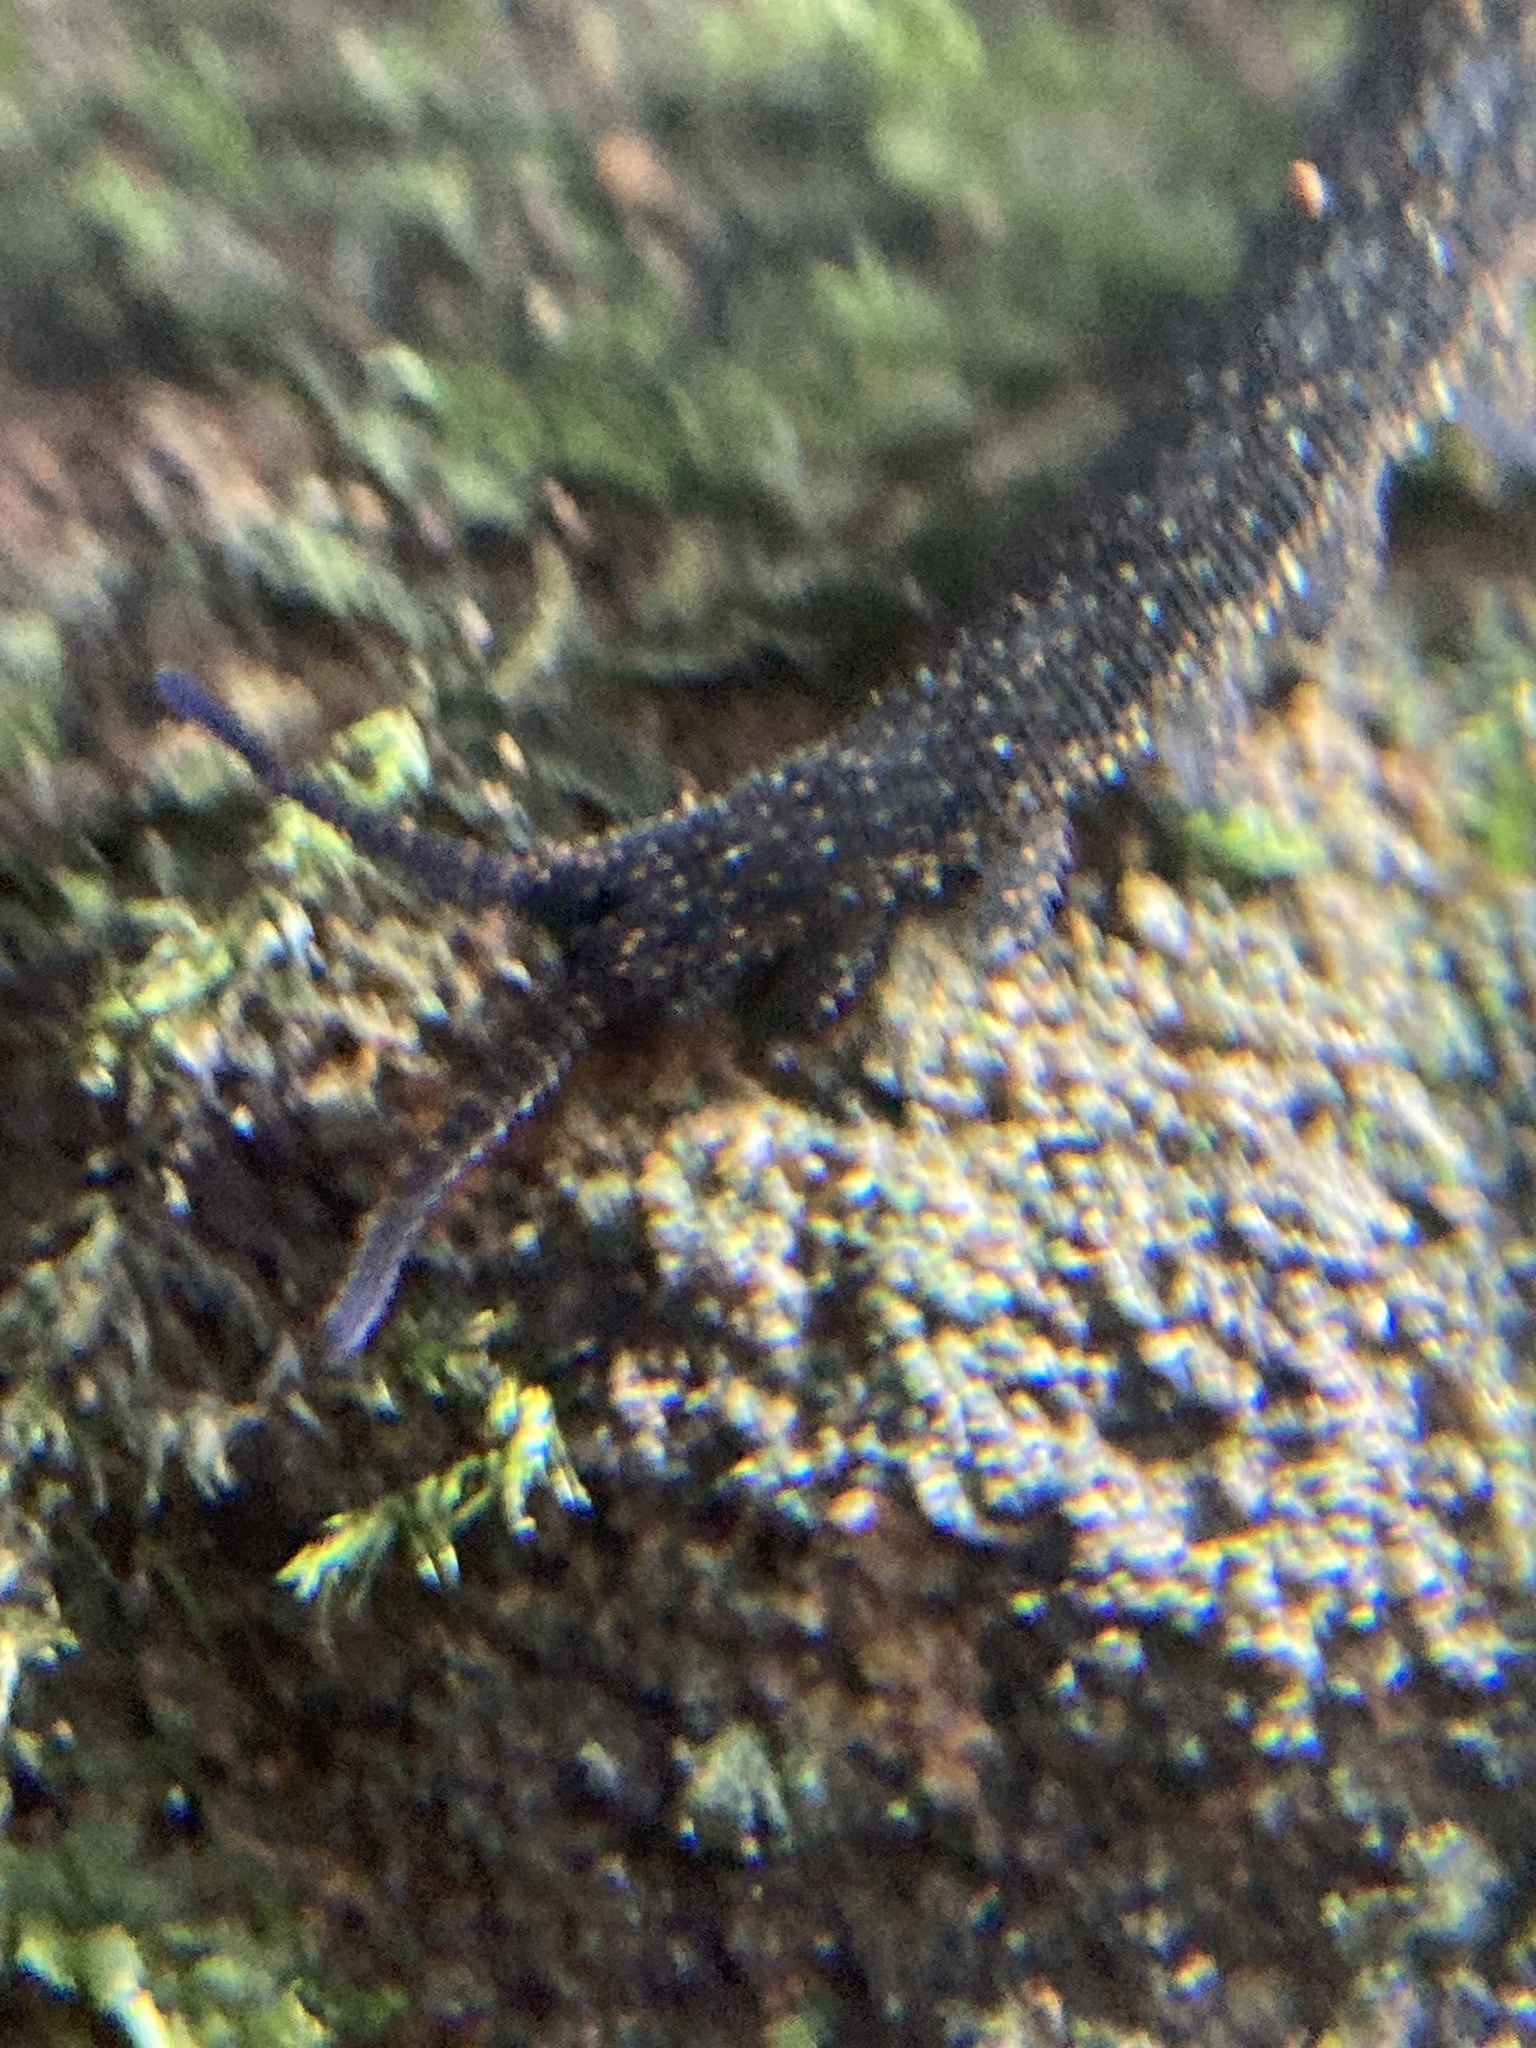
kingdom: Animalia
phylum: Onychophora
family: Peripatopsidae
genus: Anoplokaros
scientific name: Anoplokaros keerensis
